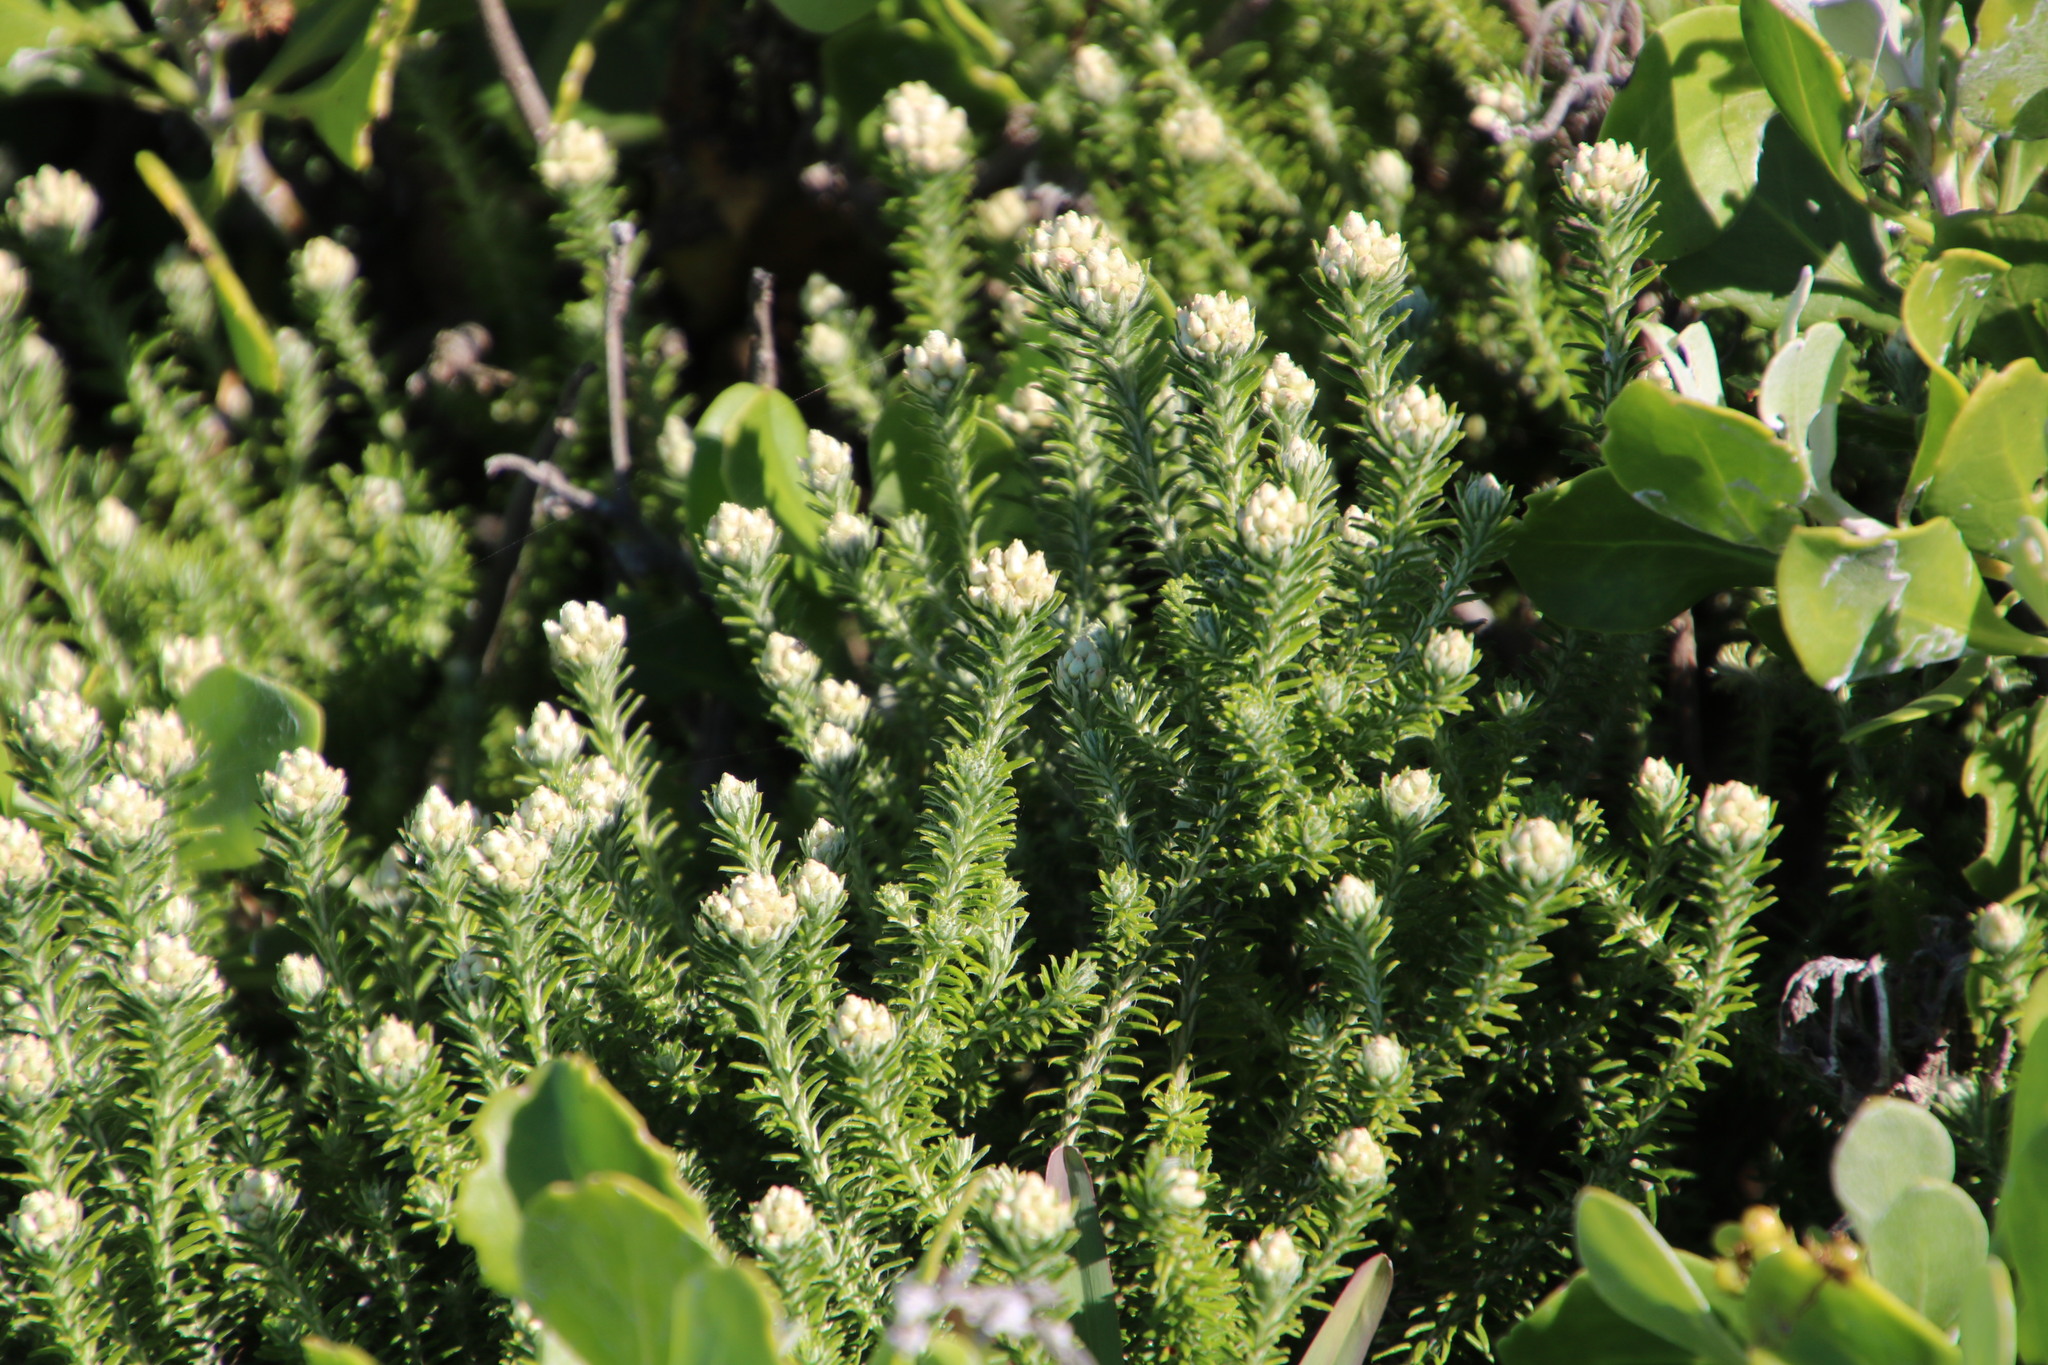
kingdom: Plantae
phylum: Tracheophyta
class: Magnoliopsida
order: Asterales
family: Asteraceae
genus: Helichrysum
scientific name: Helichrysum teretifolium
